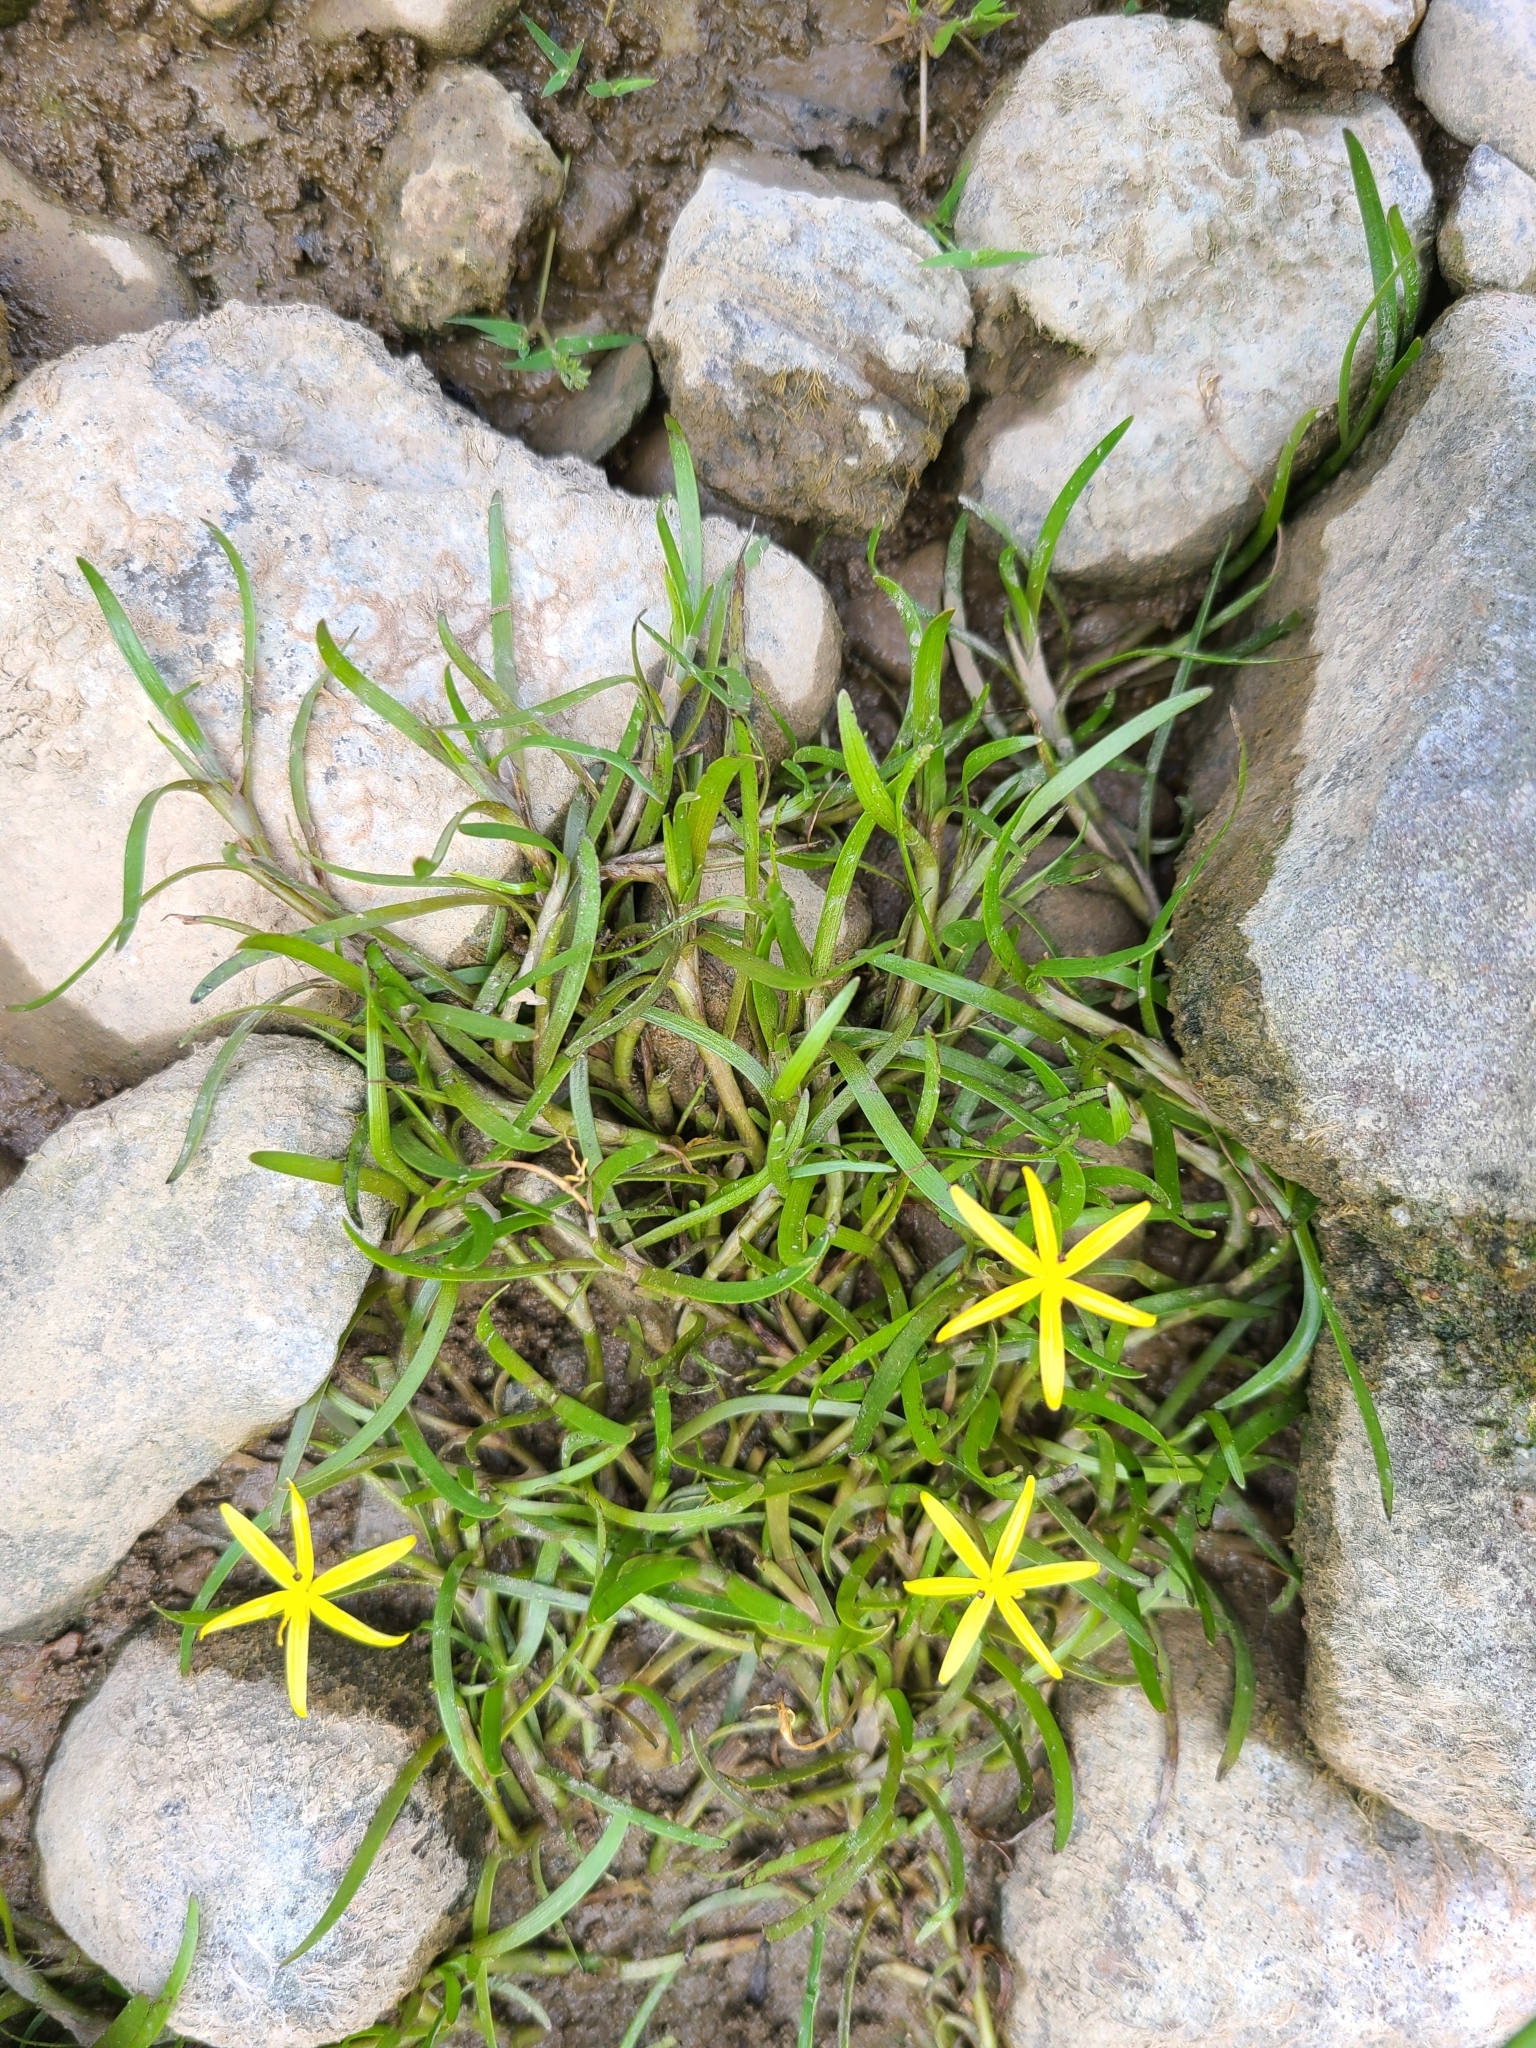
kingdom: Plantae
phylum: Tracheophyta
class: Liliopsida
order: Commelinales
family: Pontederiaceae
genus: Heteranthera
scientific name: Heteranthera dubia
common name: Grass-leaved mud plantain
